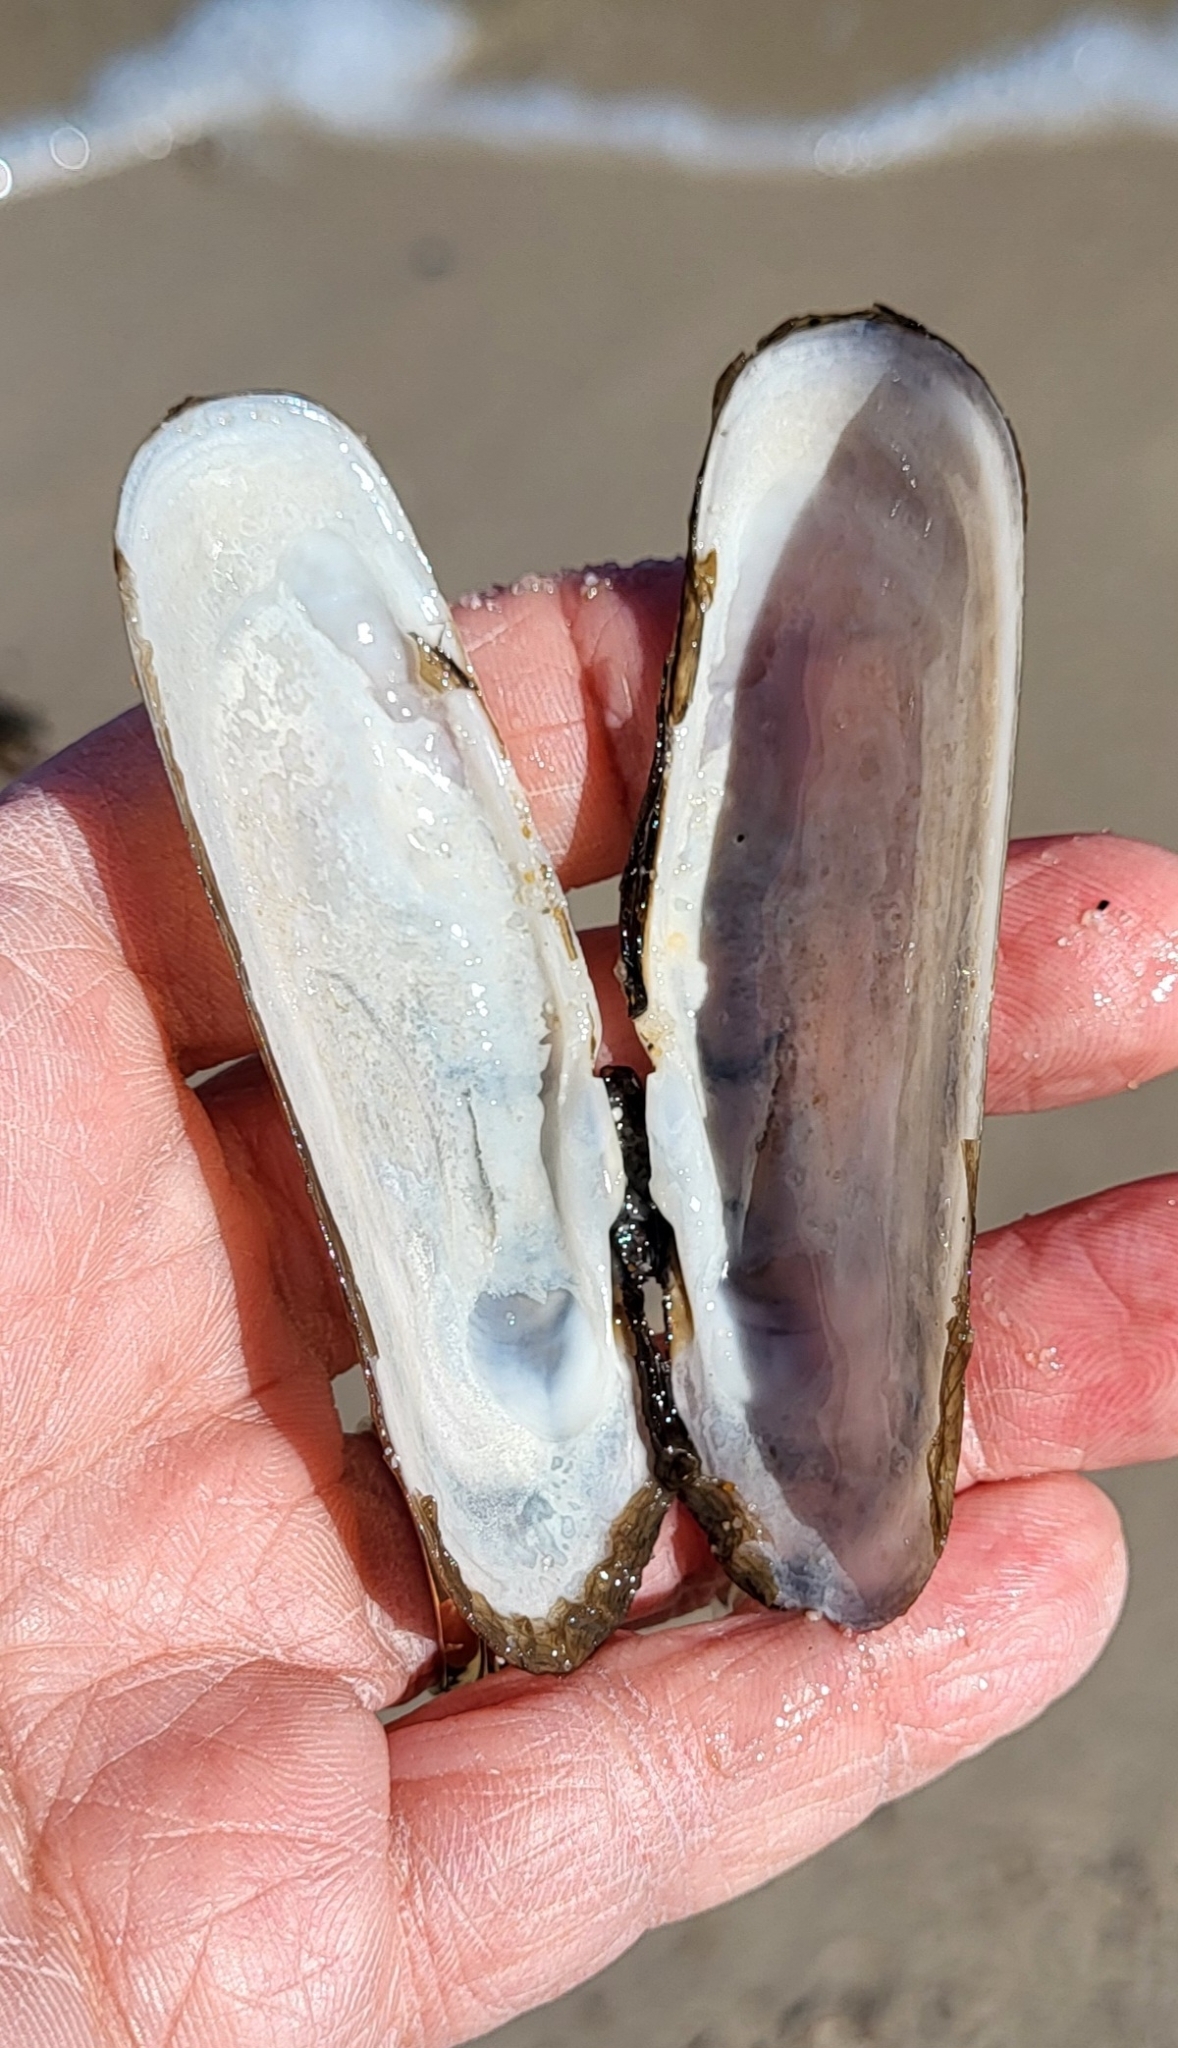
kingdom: Animalia
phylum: Mollusca
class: Bivalvia
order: Cardiida
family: Solecurtidae
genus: Tagelus
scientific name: Tagelus plebeius
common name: Stout tagelus
